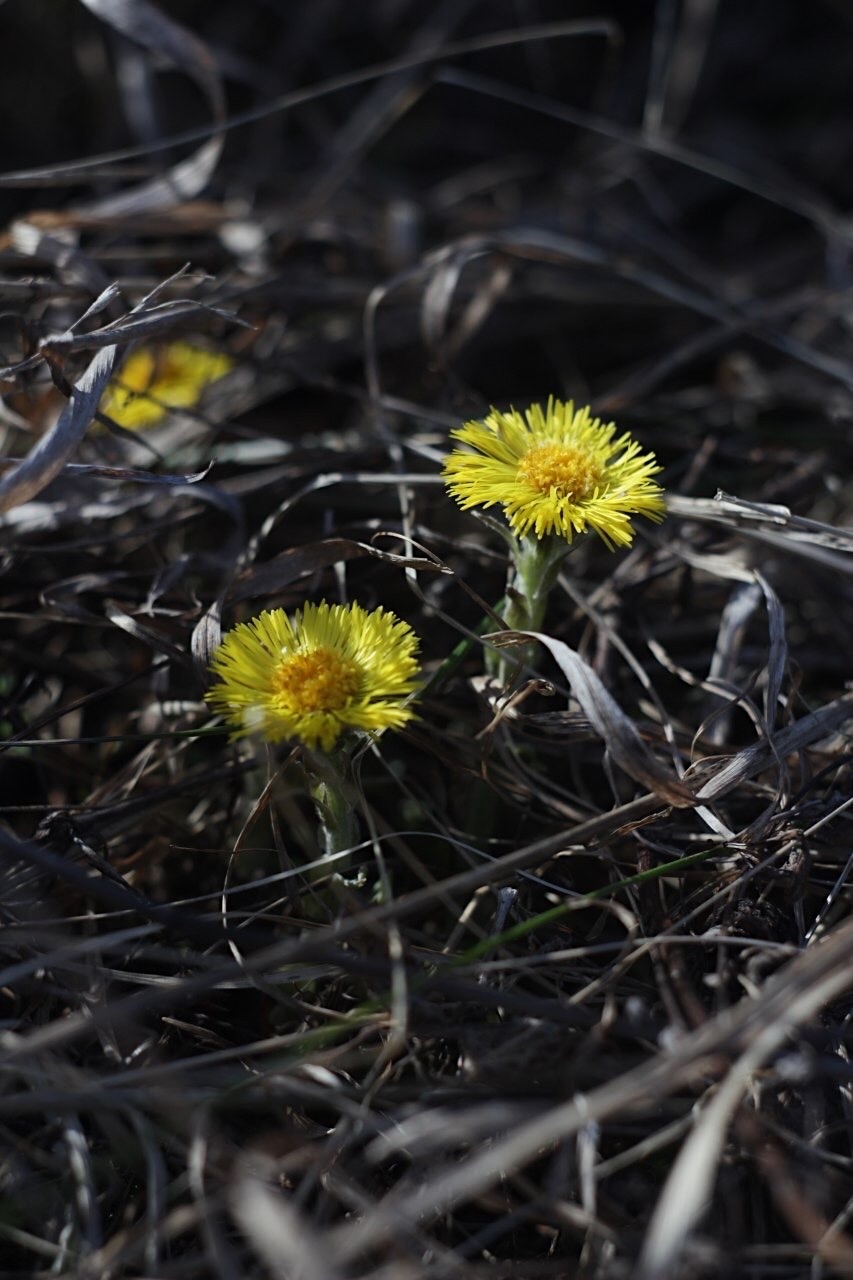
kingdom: Plantae
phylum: Tracheophyta
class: Magnoliopsida
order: Asterales
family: Asteraceae
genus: Tussilago
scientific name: Tussilago farfara
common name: Coltsfoot
